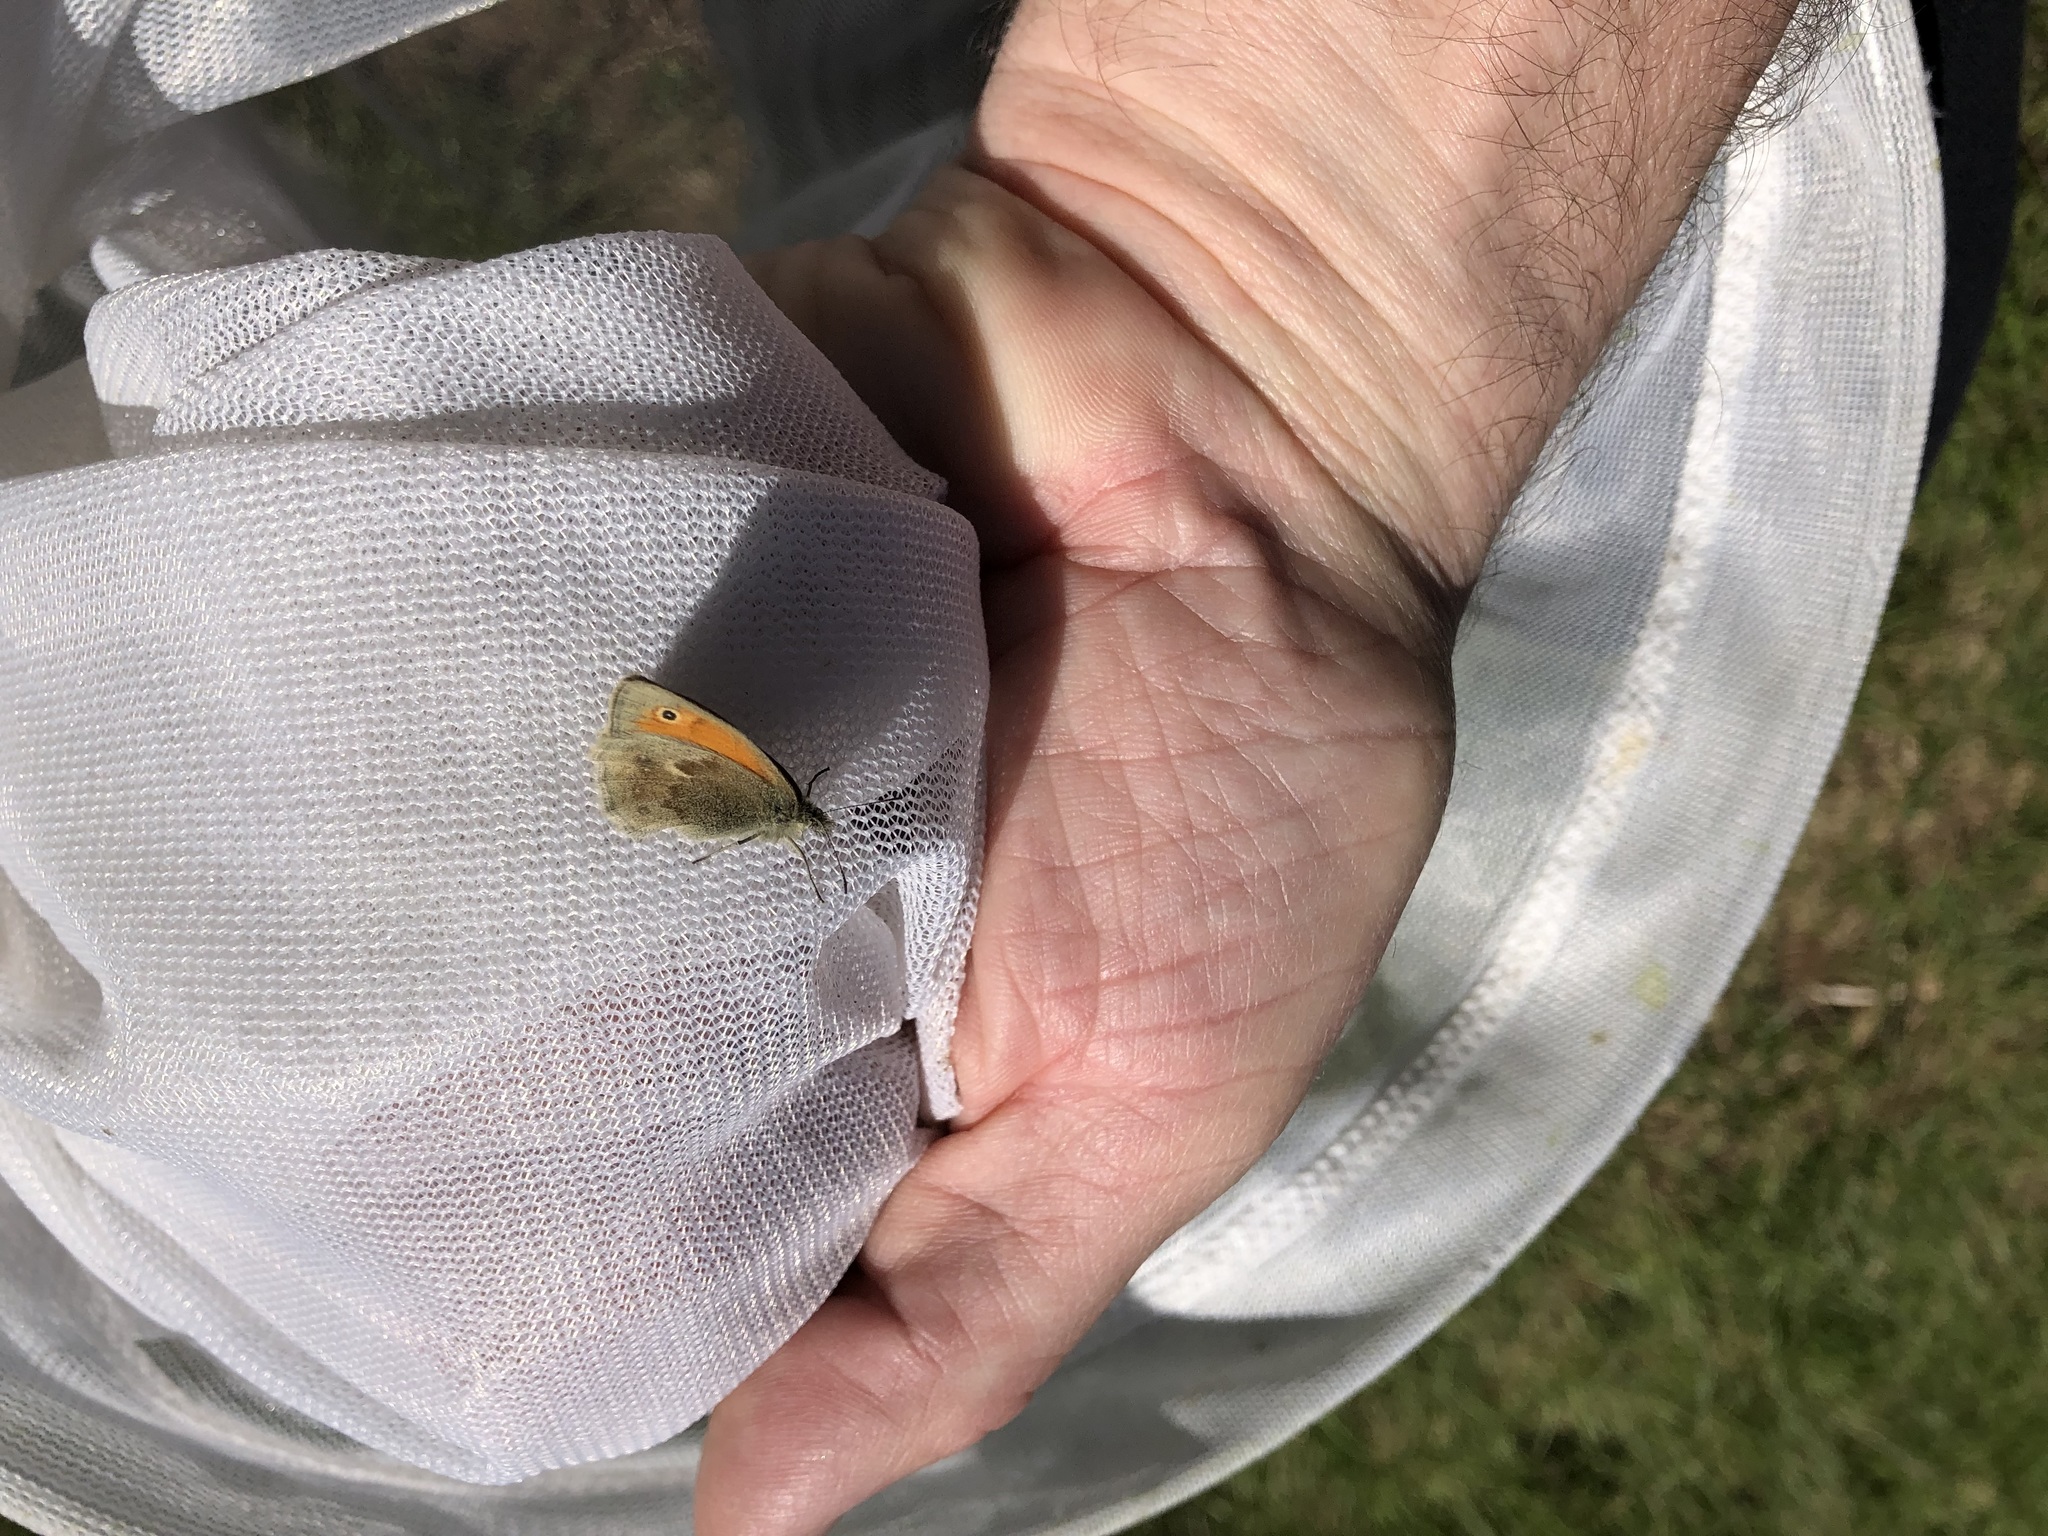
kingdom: Animalia
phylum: Arthropoda
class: Insecta
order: Lepidoptera
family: Nymphalidae
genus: Coenonympha
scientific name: Coenonympha pamphilus
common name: Small heath
